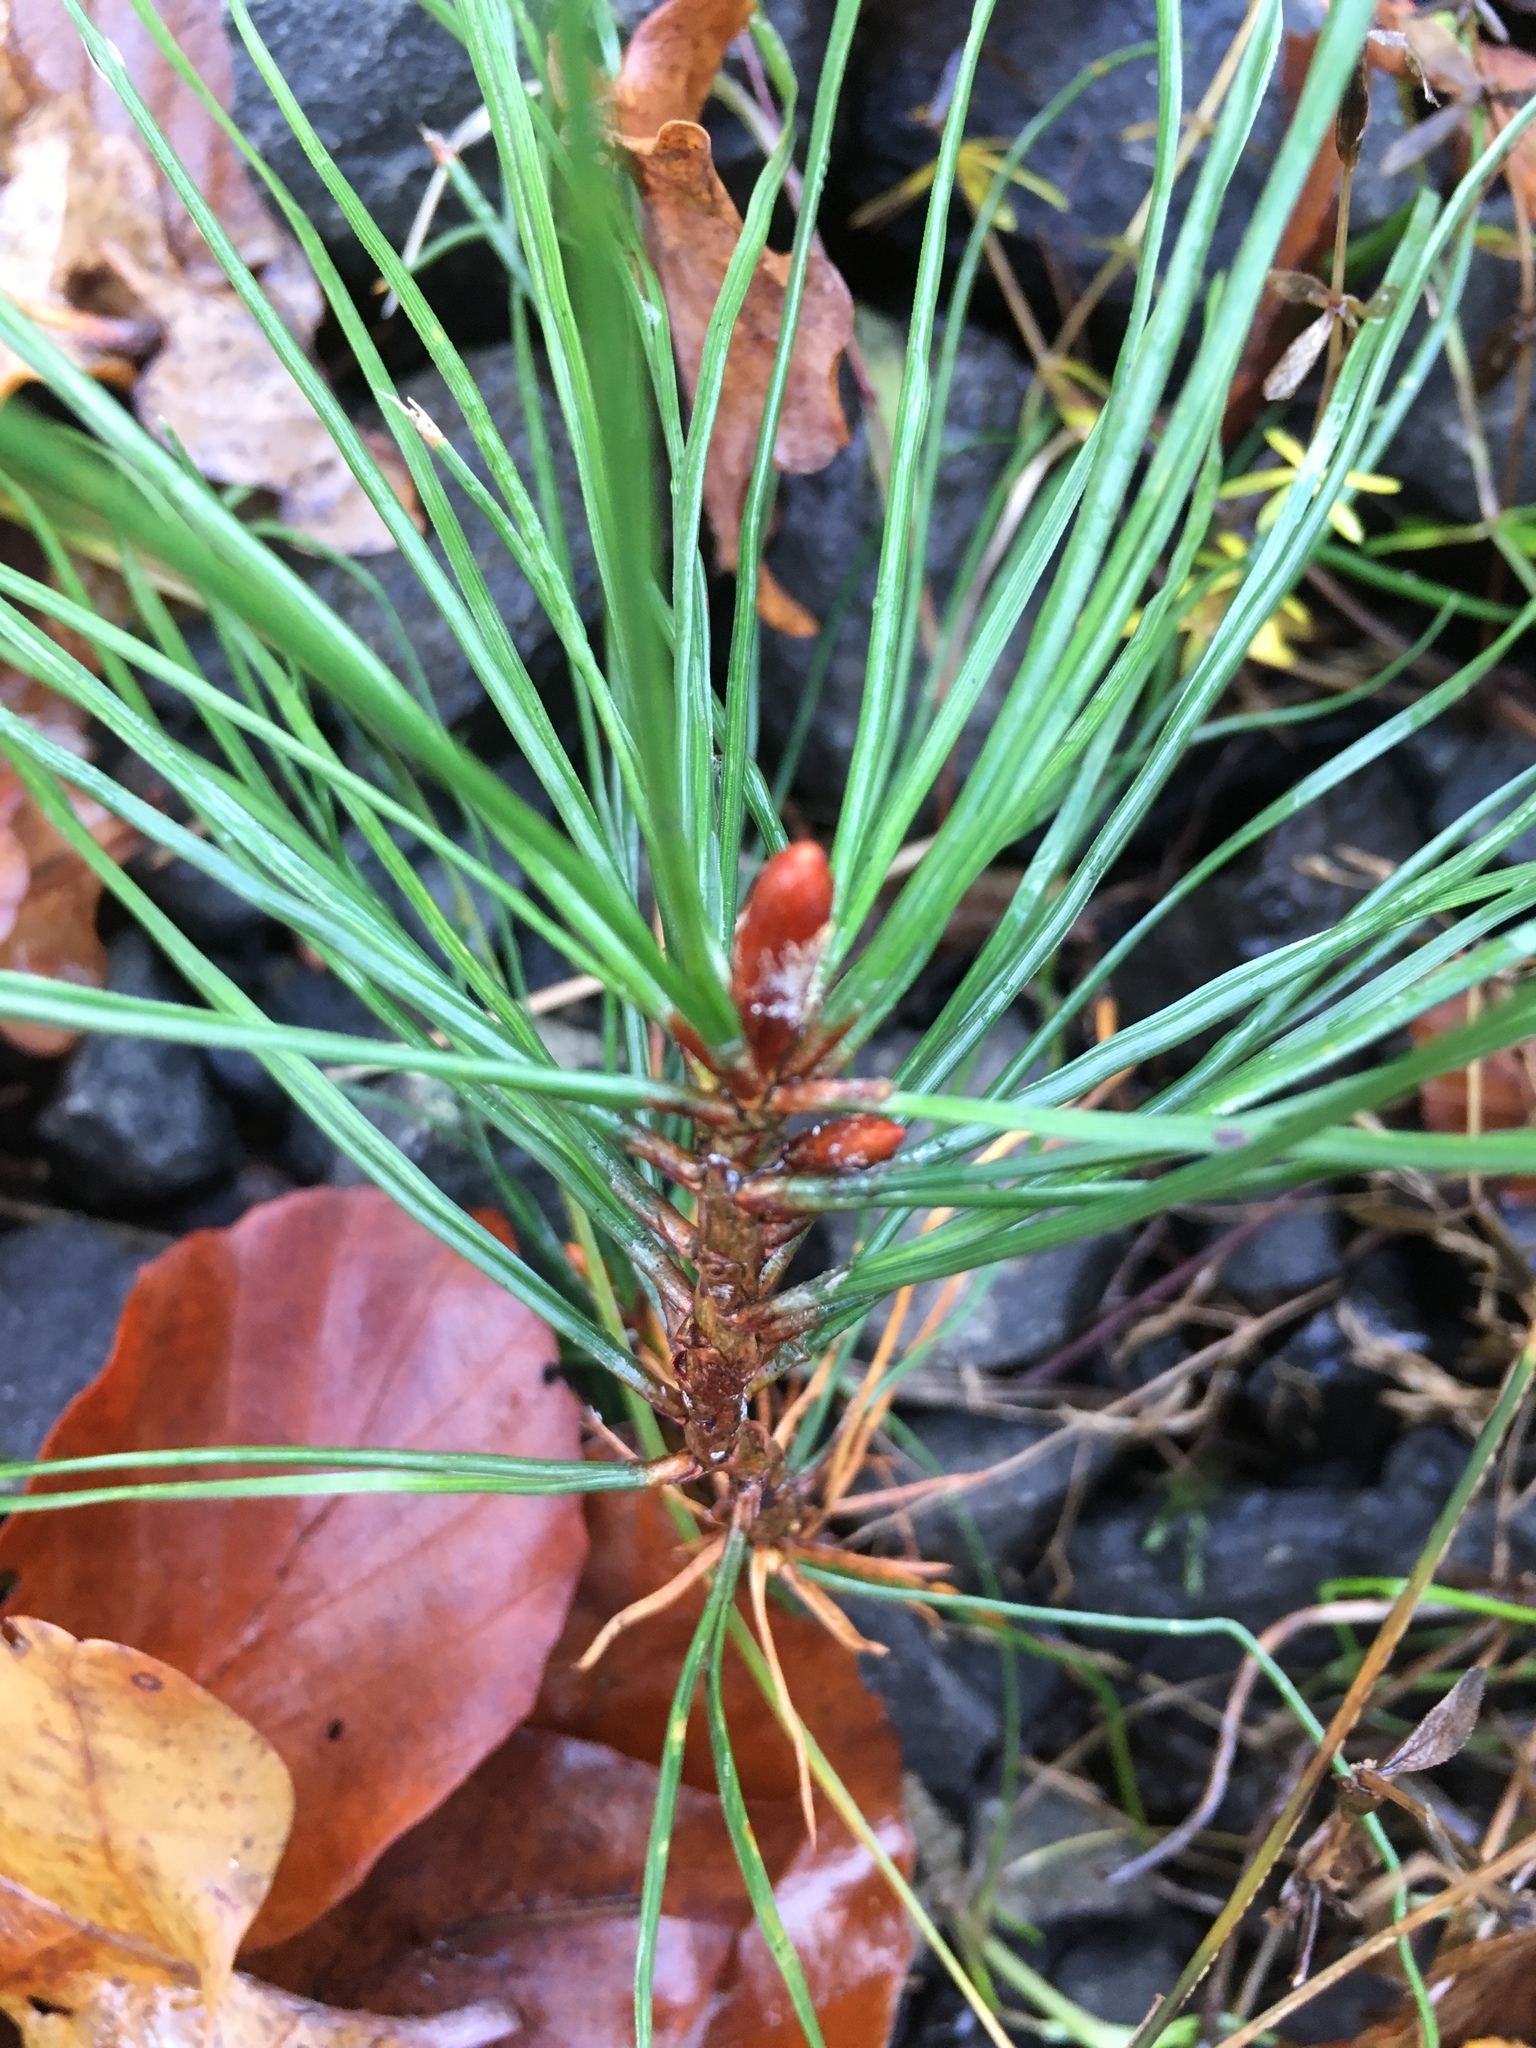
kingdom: Plantae
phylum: Tracheophyta
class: Pinopsida
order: Pinales
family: Pinaceae
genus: Pinus
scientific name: Pinus sylvestris
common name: Scots pine
